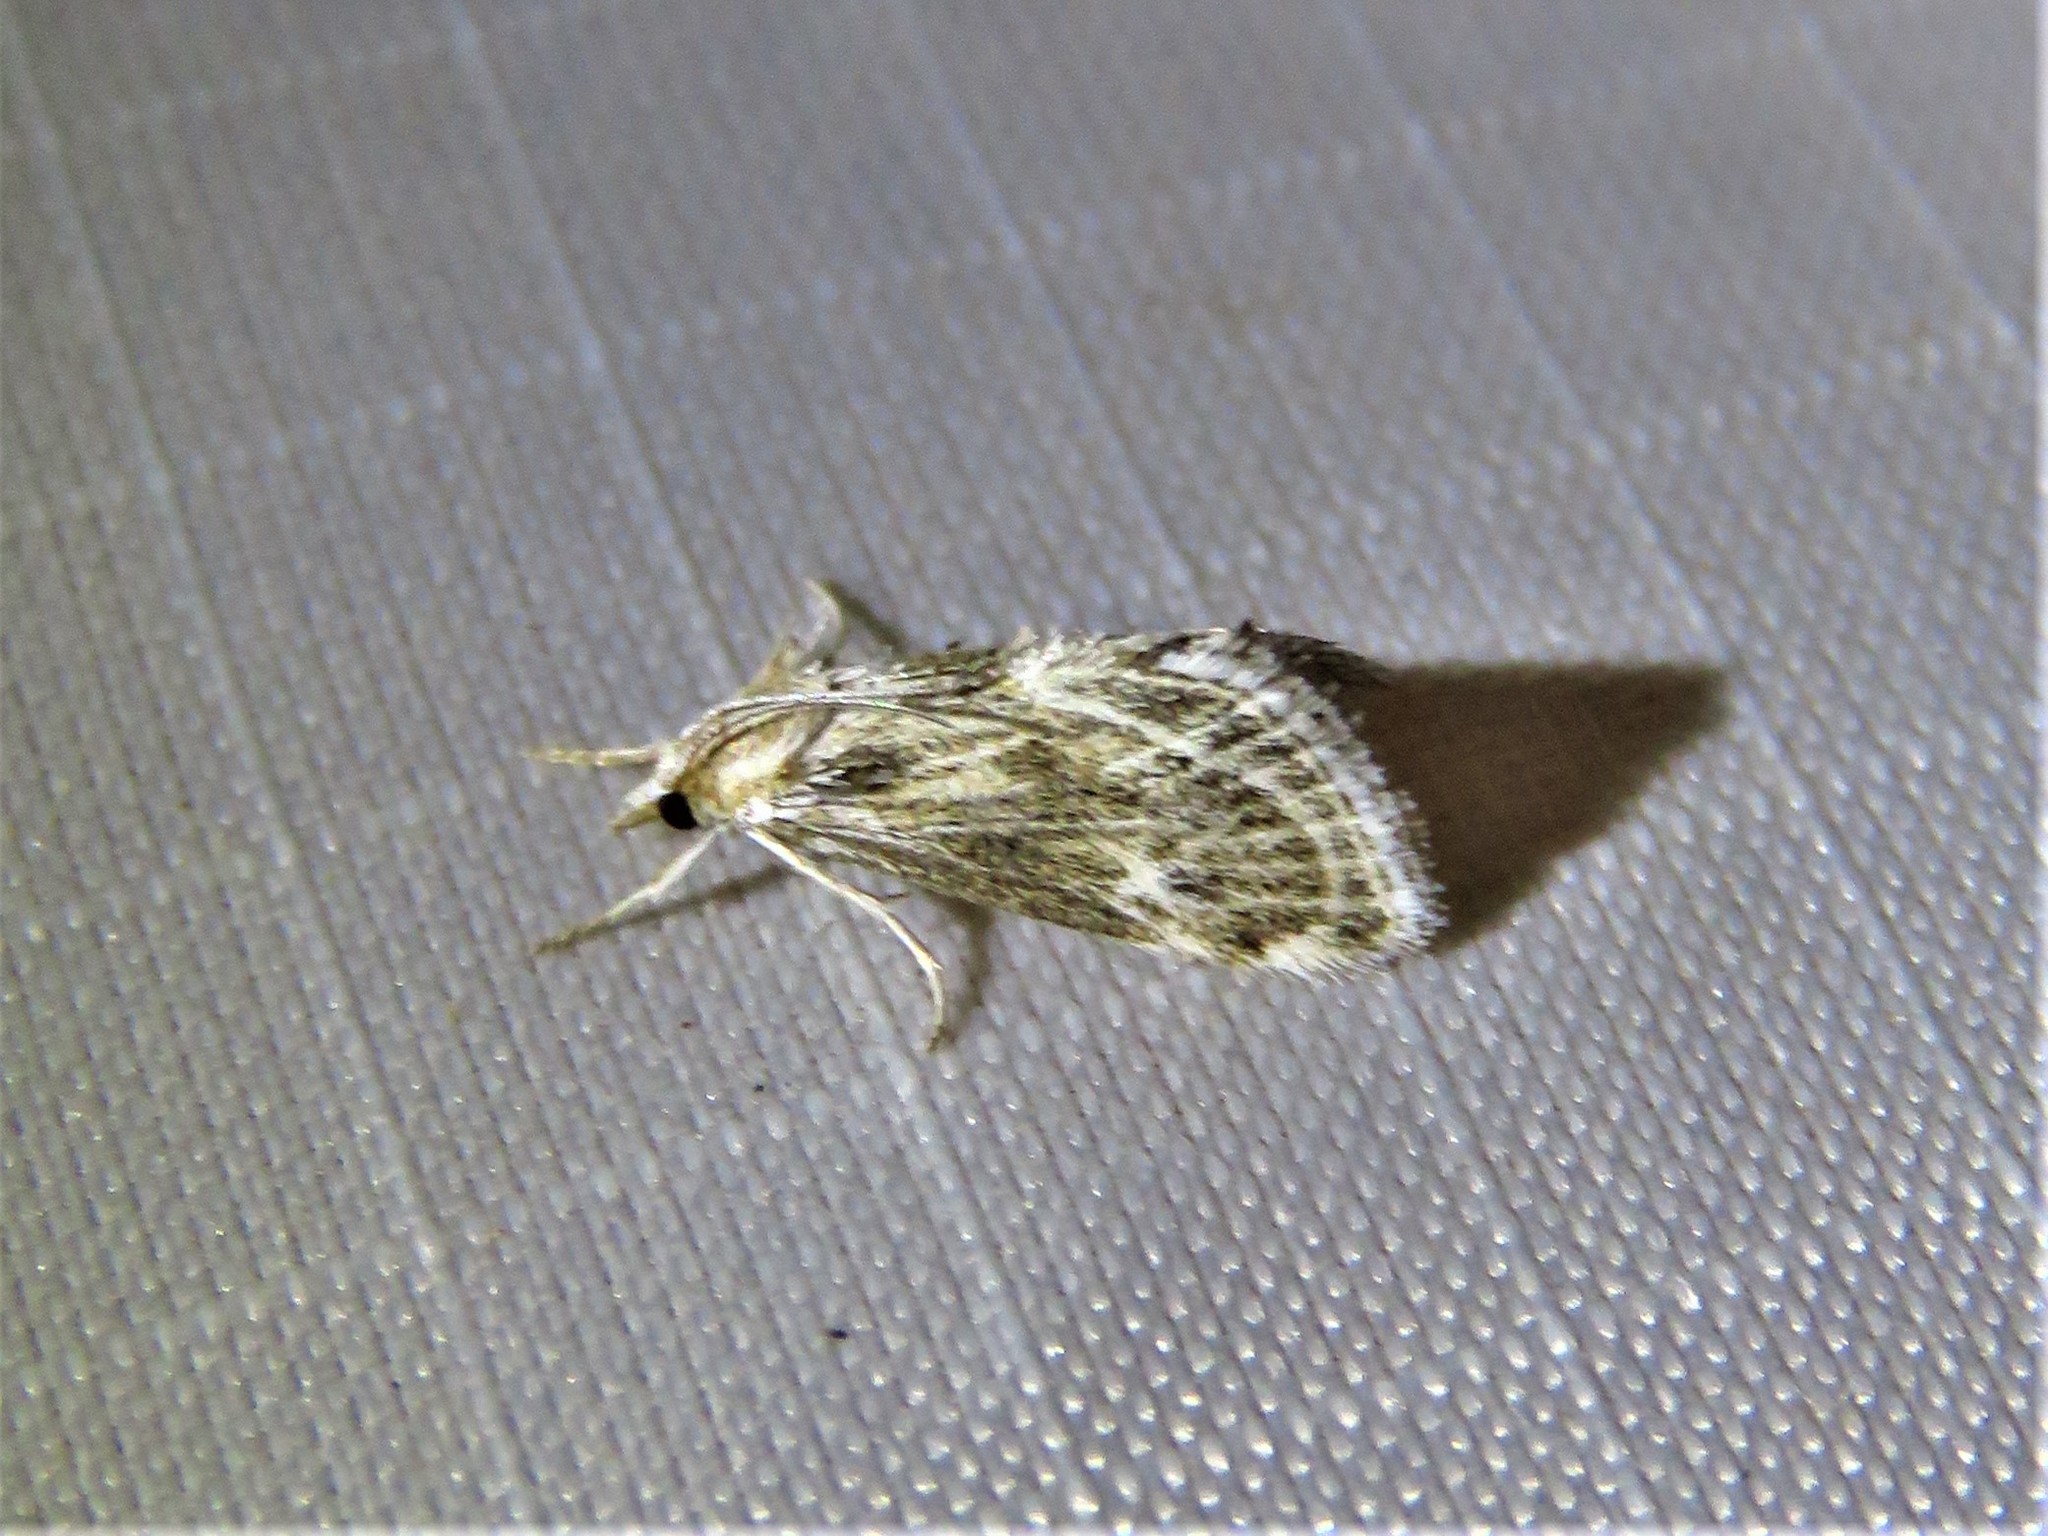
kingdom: Animalia
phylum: Arthropoda
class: Insecta
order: Lepidoptera
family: Crambidae
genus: Frechinia
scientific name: Frechinia helianthiales
